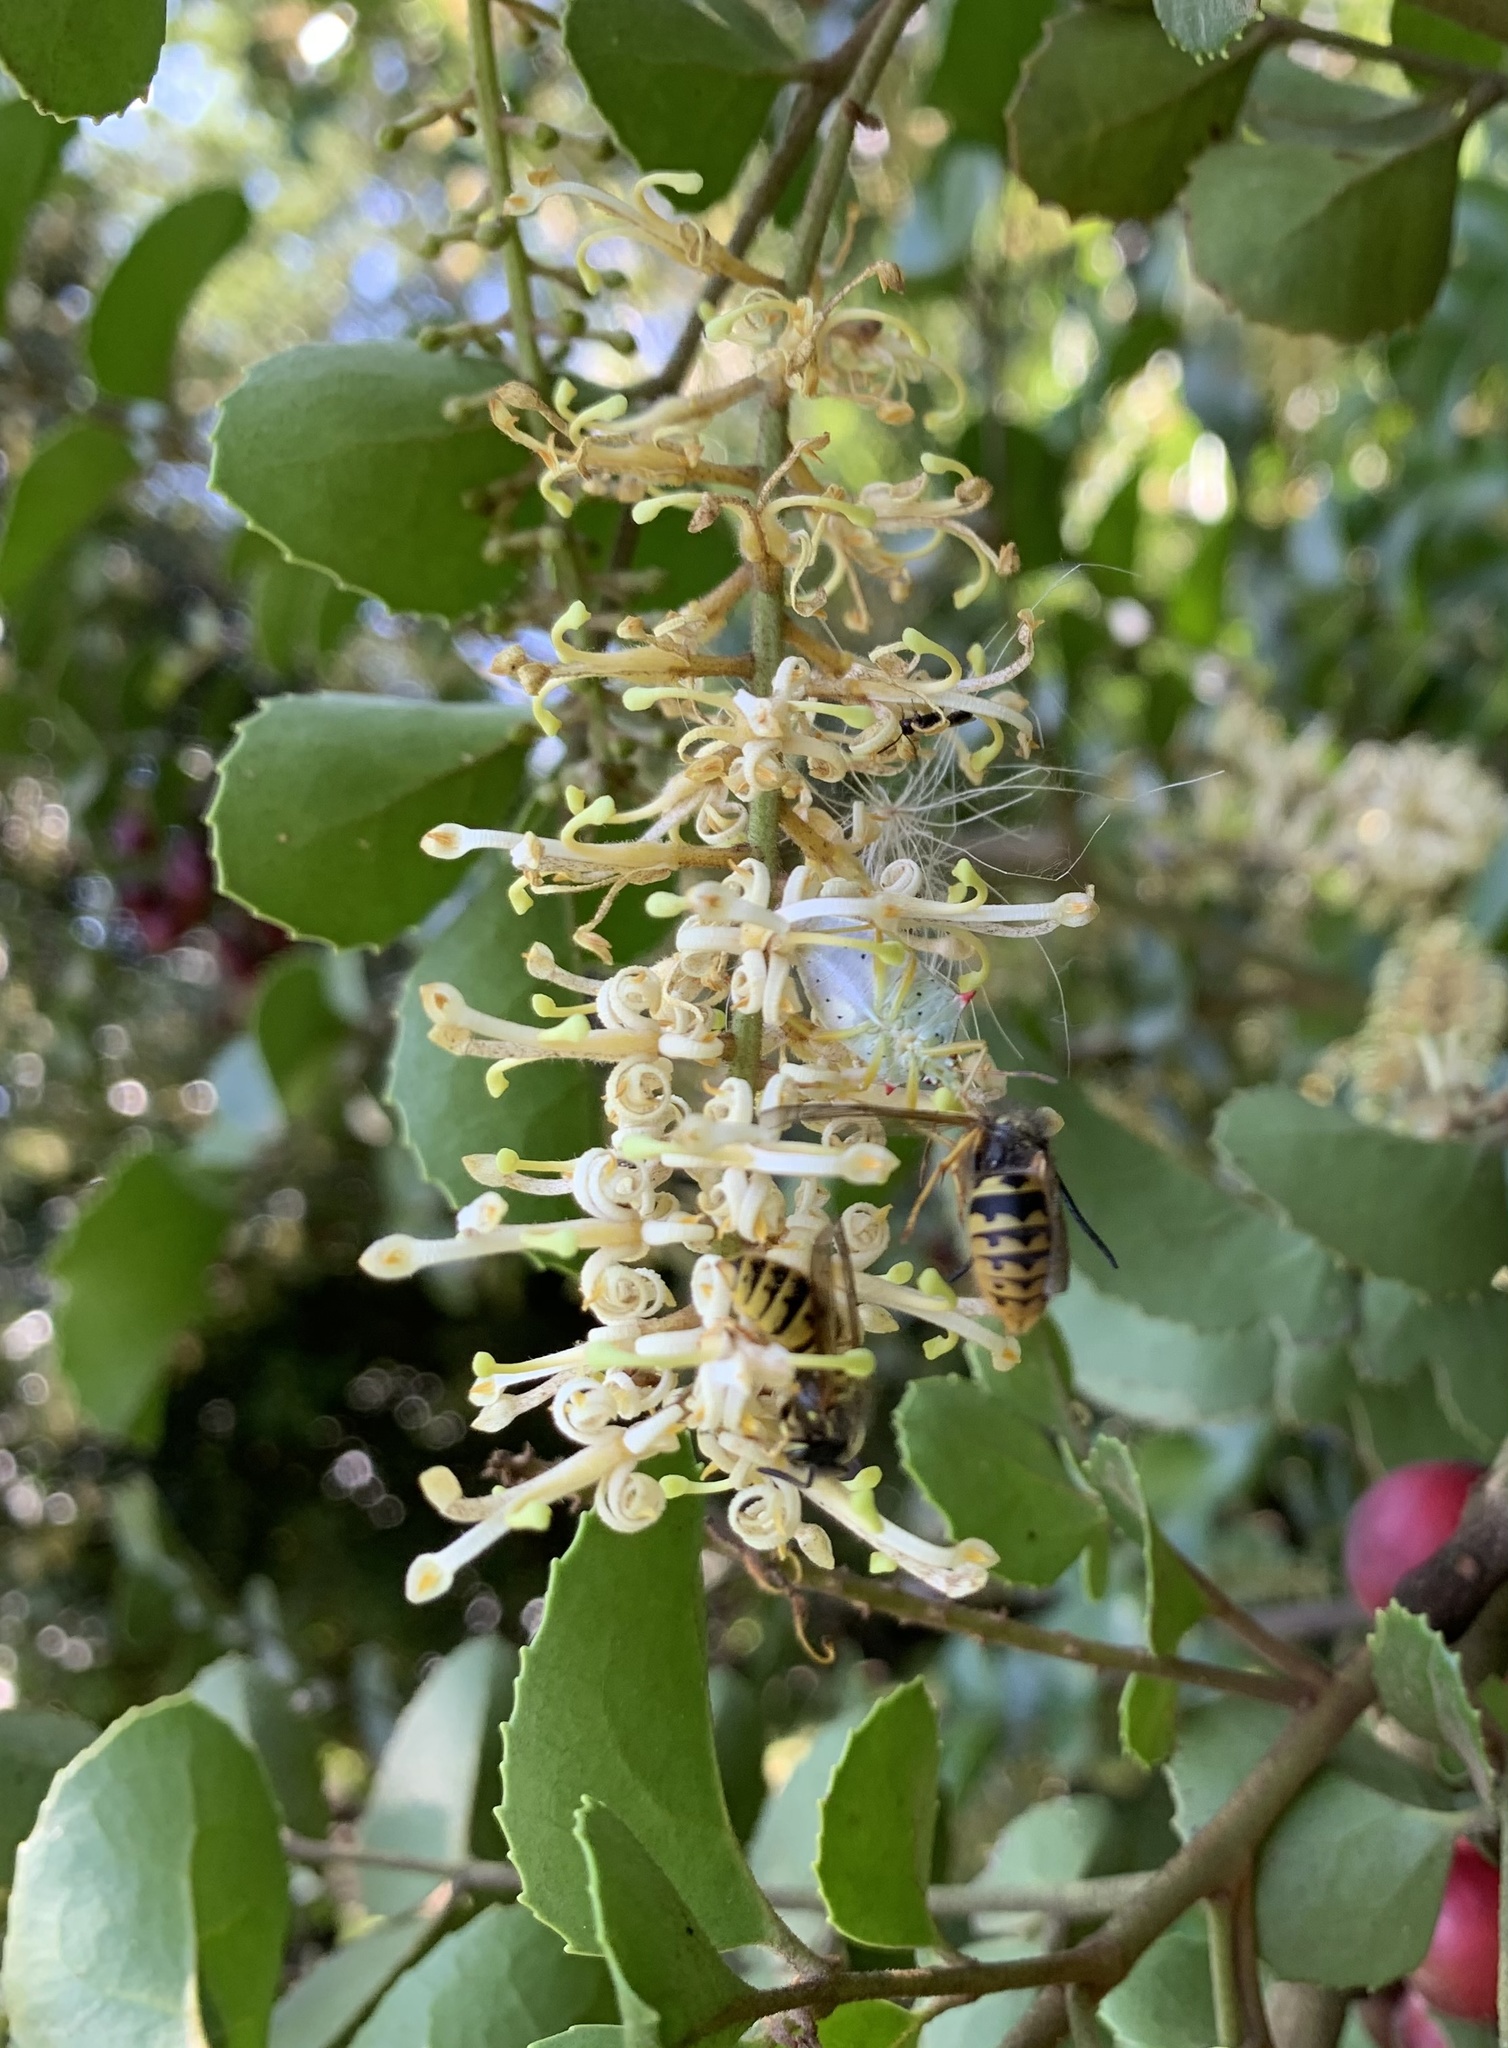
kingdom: Animalia
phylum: Arthropoda
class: Insecta
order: Hemiptera
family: Pentatomidae
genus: Brontocoris
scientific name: Brontocoris
